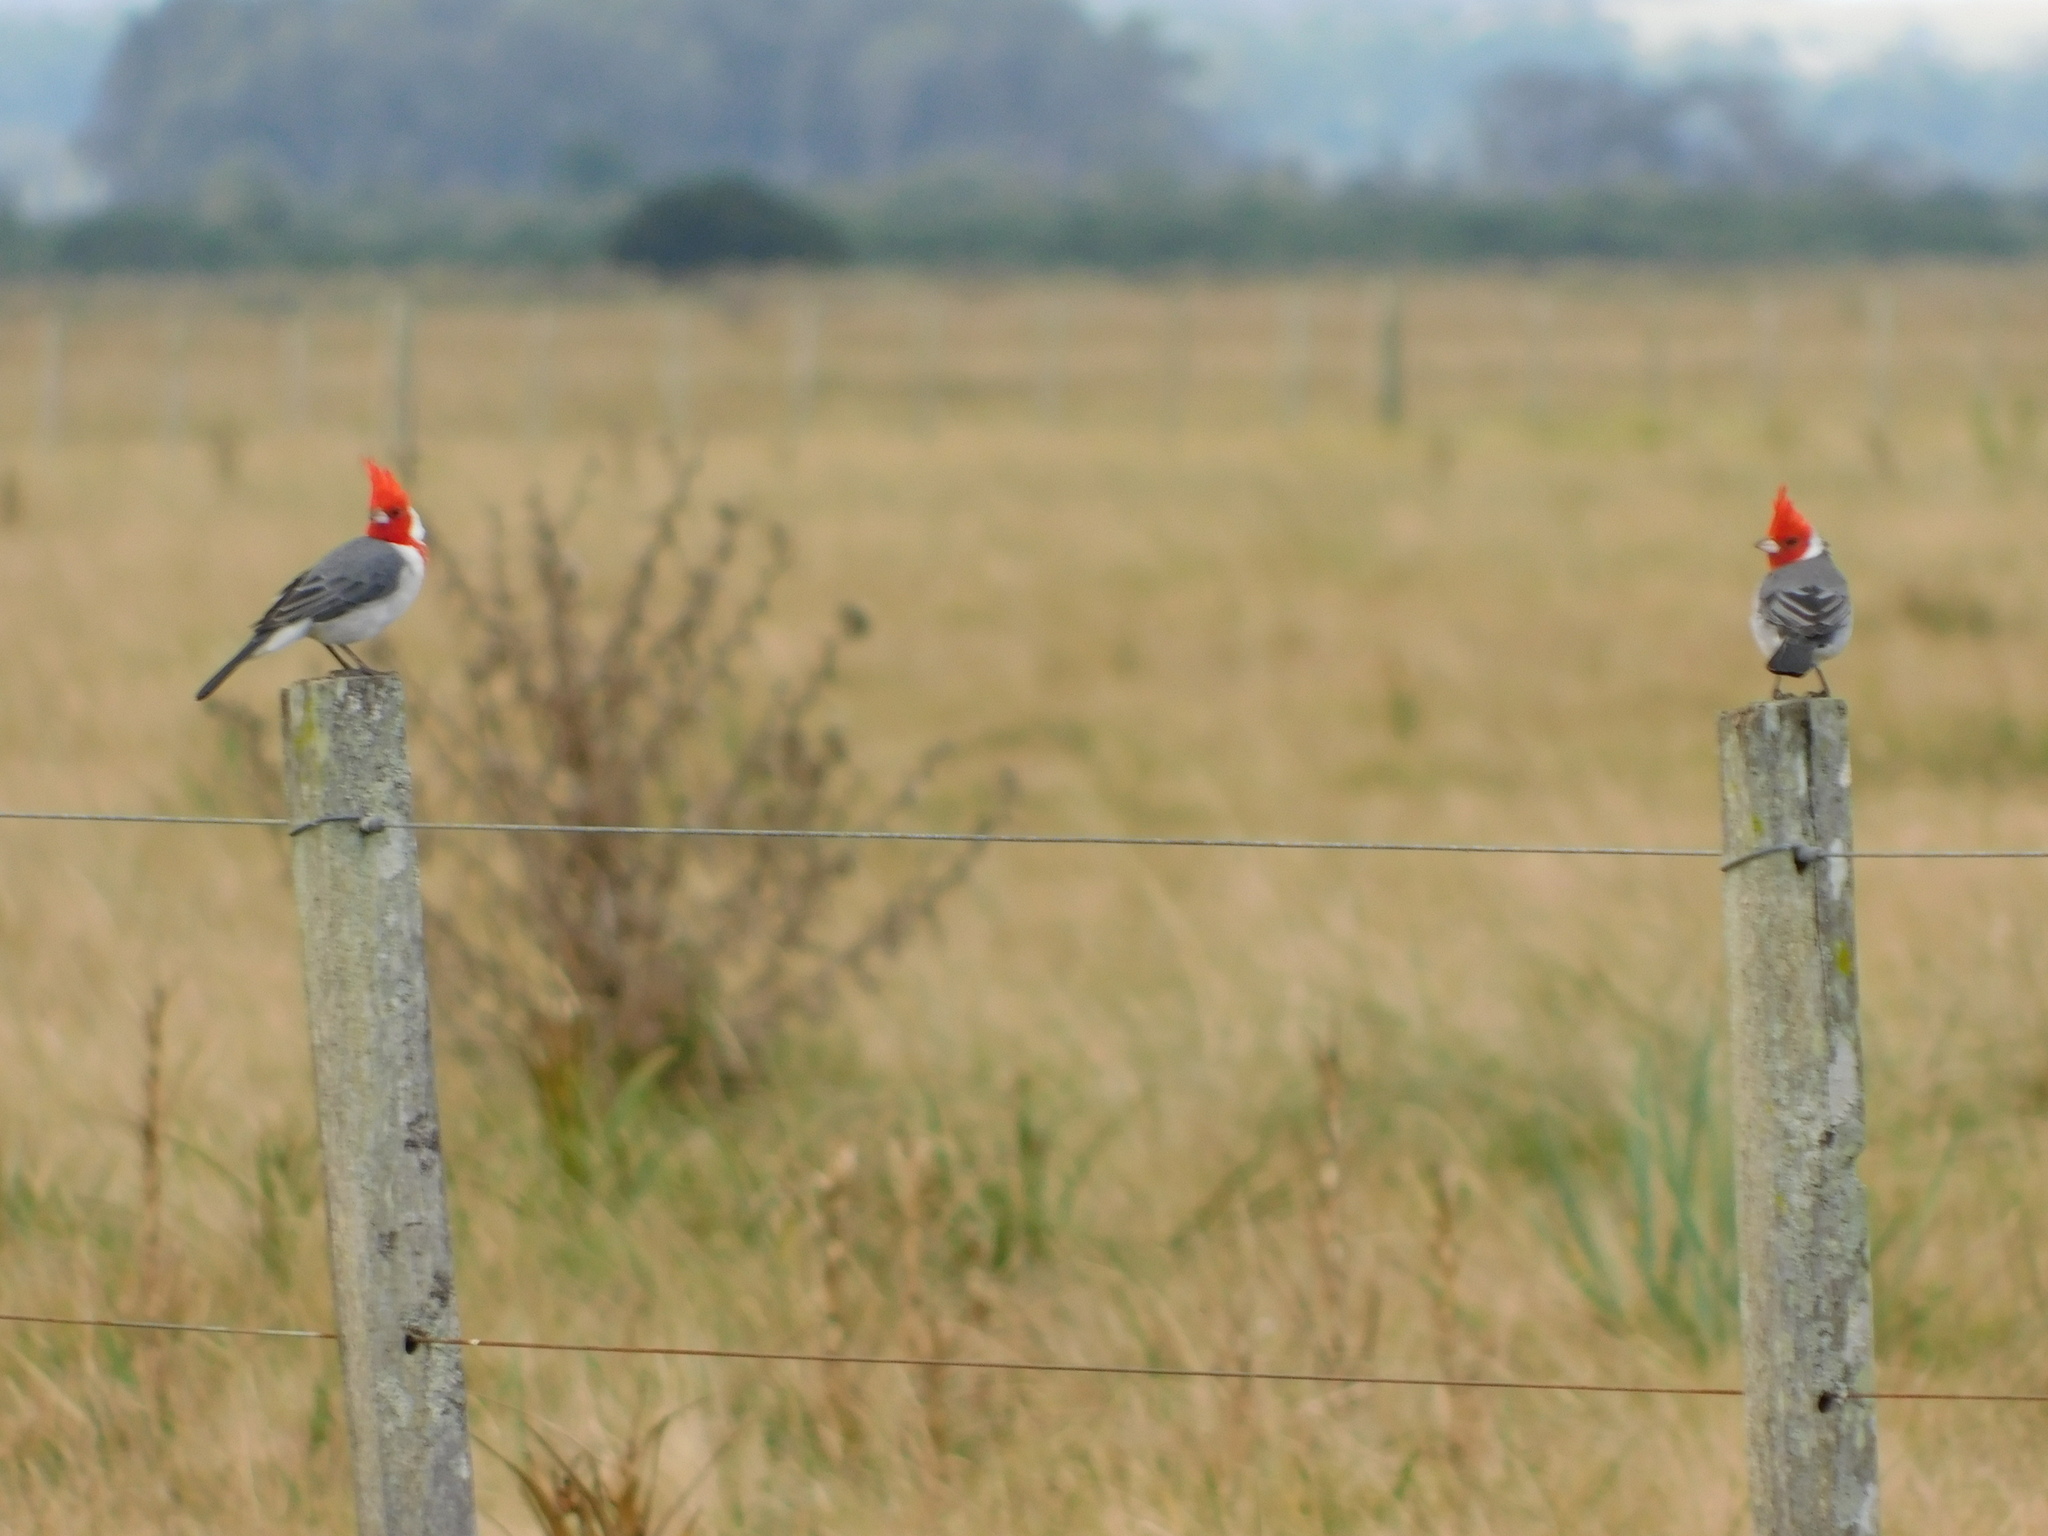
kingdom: Animalia
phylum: Chordata
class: Aves
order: Passeriformes
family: Thraupidae
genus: Paroaria
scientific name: Paroaria coronata
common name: Red-crested cardinal
